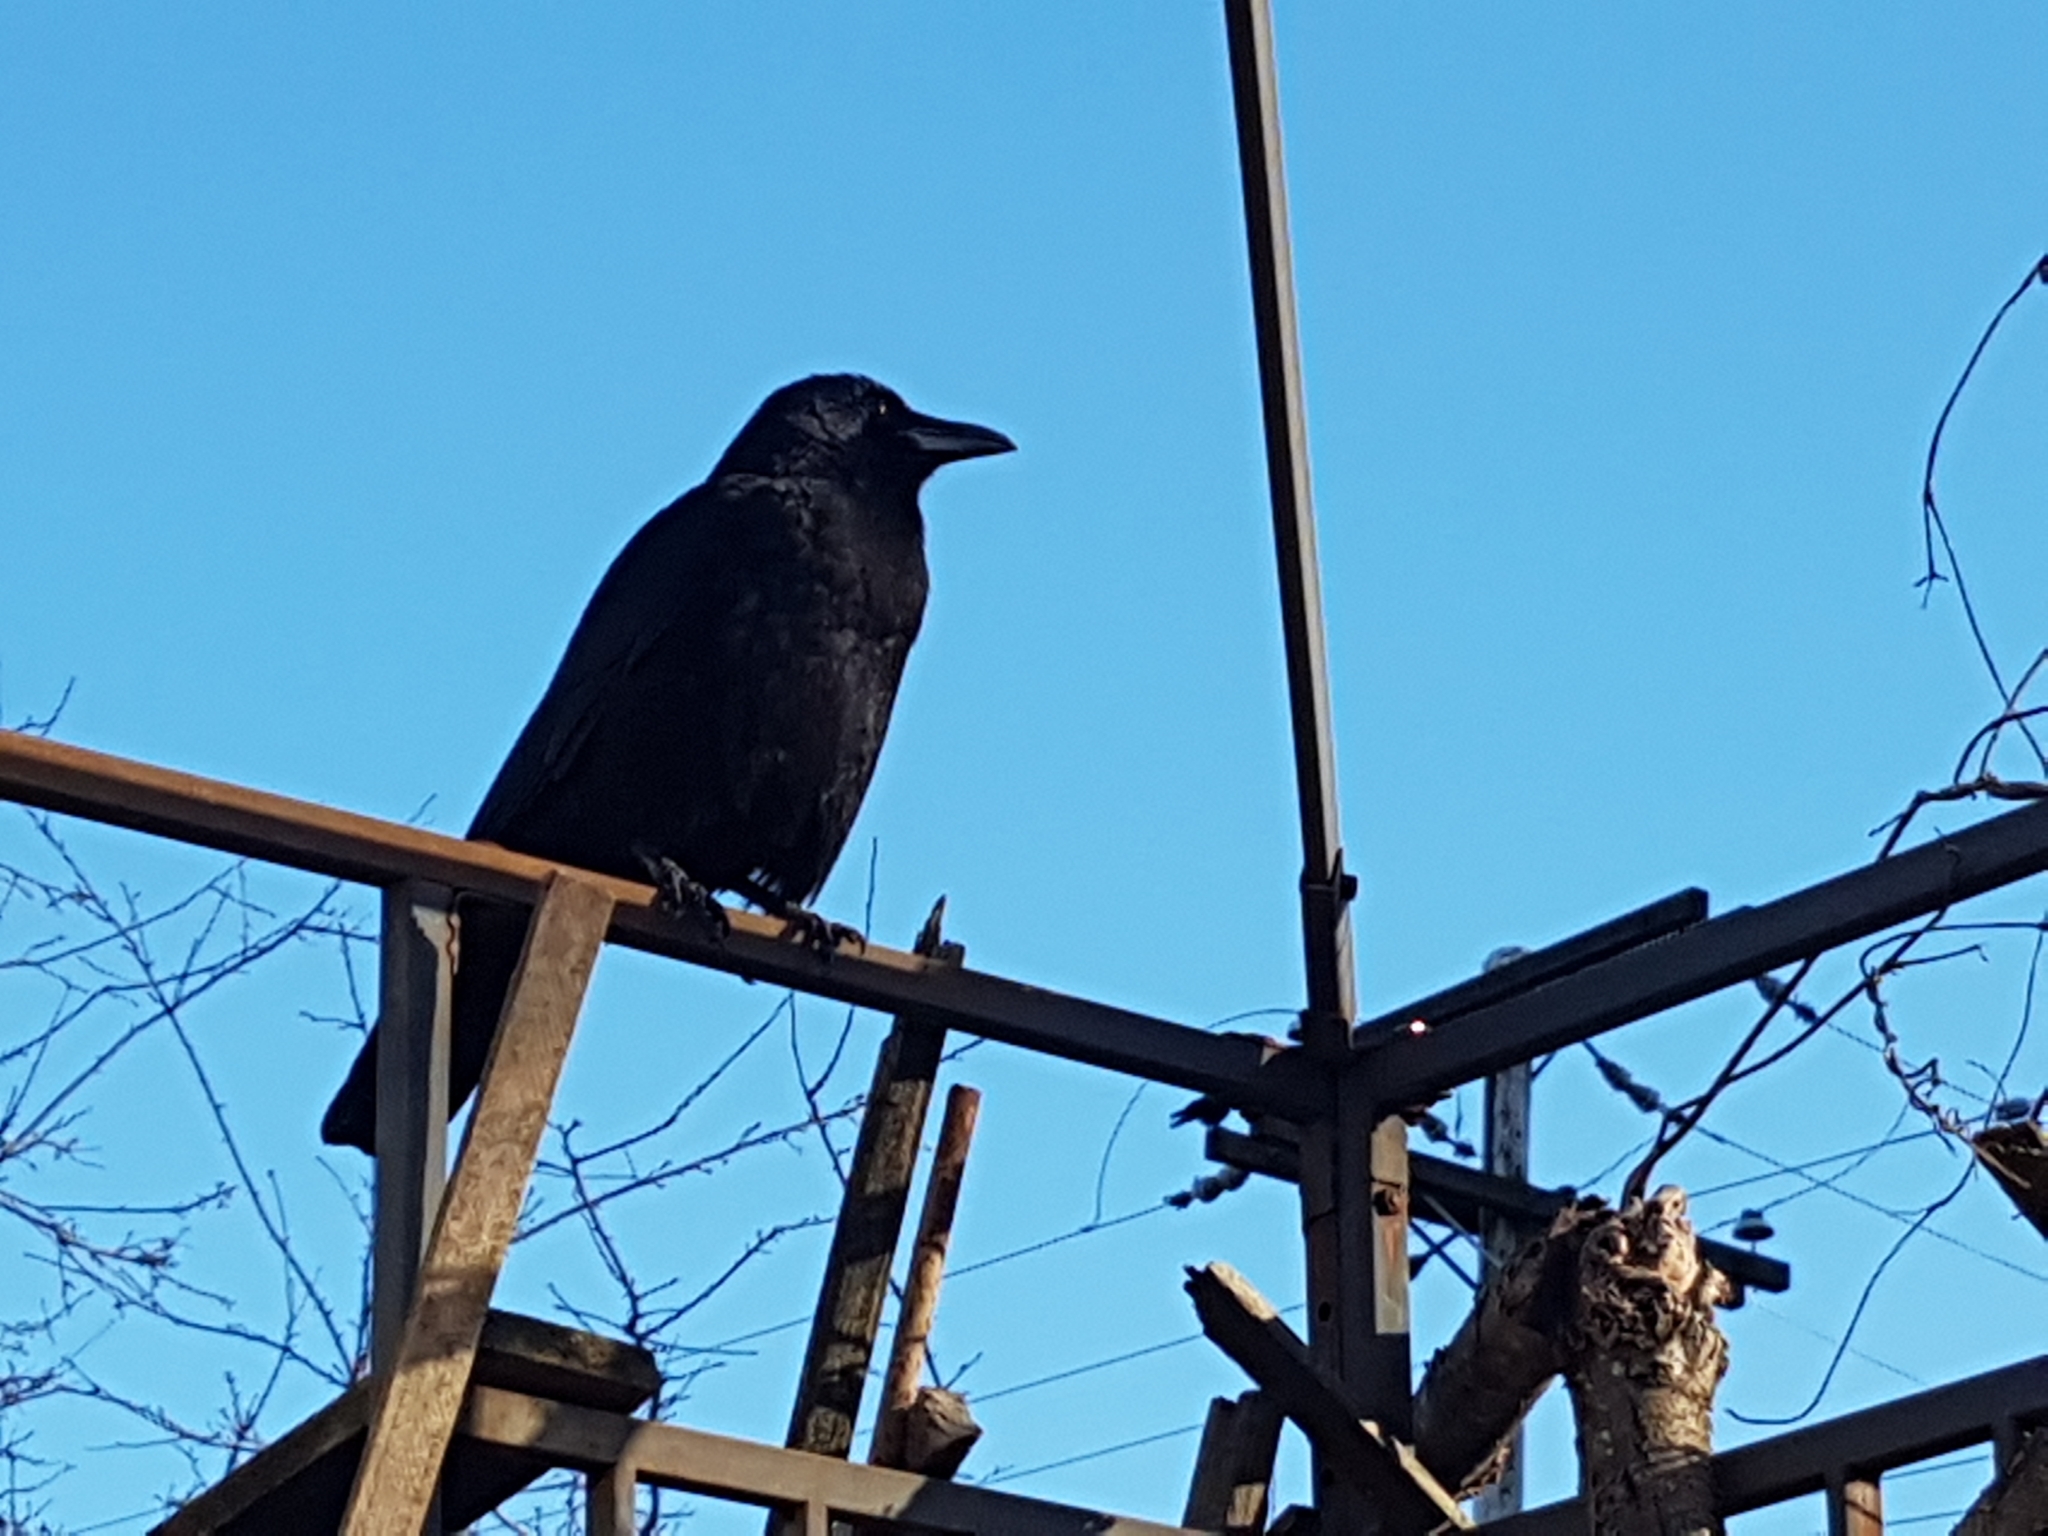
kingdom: Animalia
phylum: Chordata
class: Aves
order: Passeriformes
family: Corvidae
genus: Corvus
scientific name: Corvus brachyrhynchos
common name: American crow
